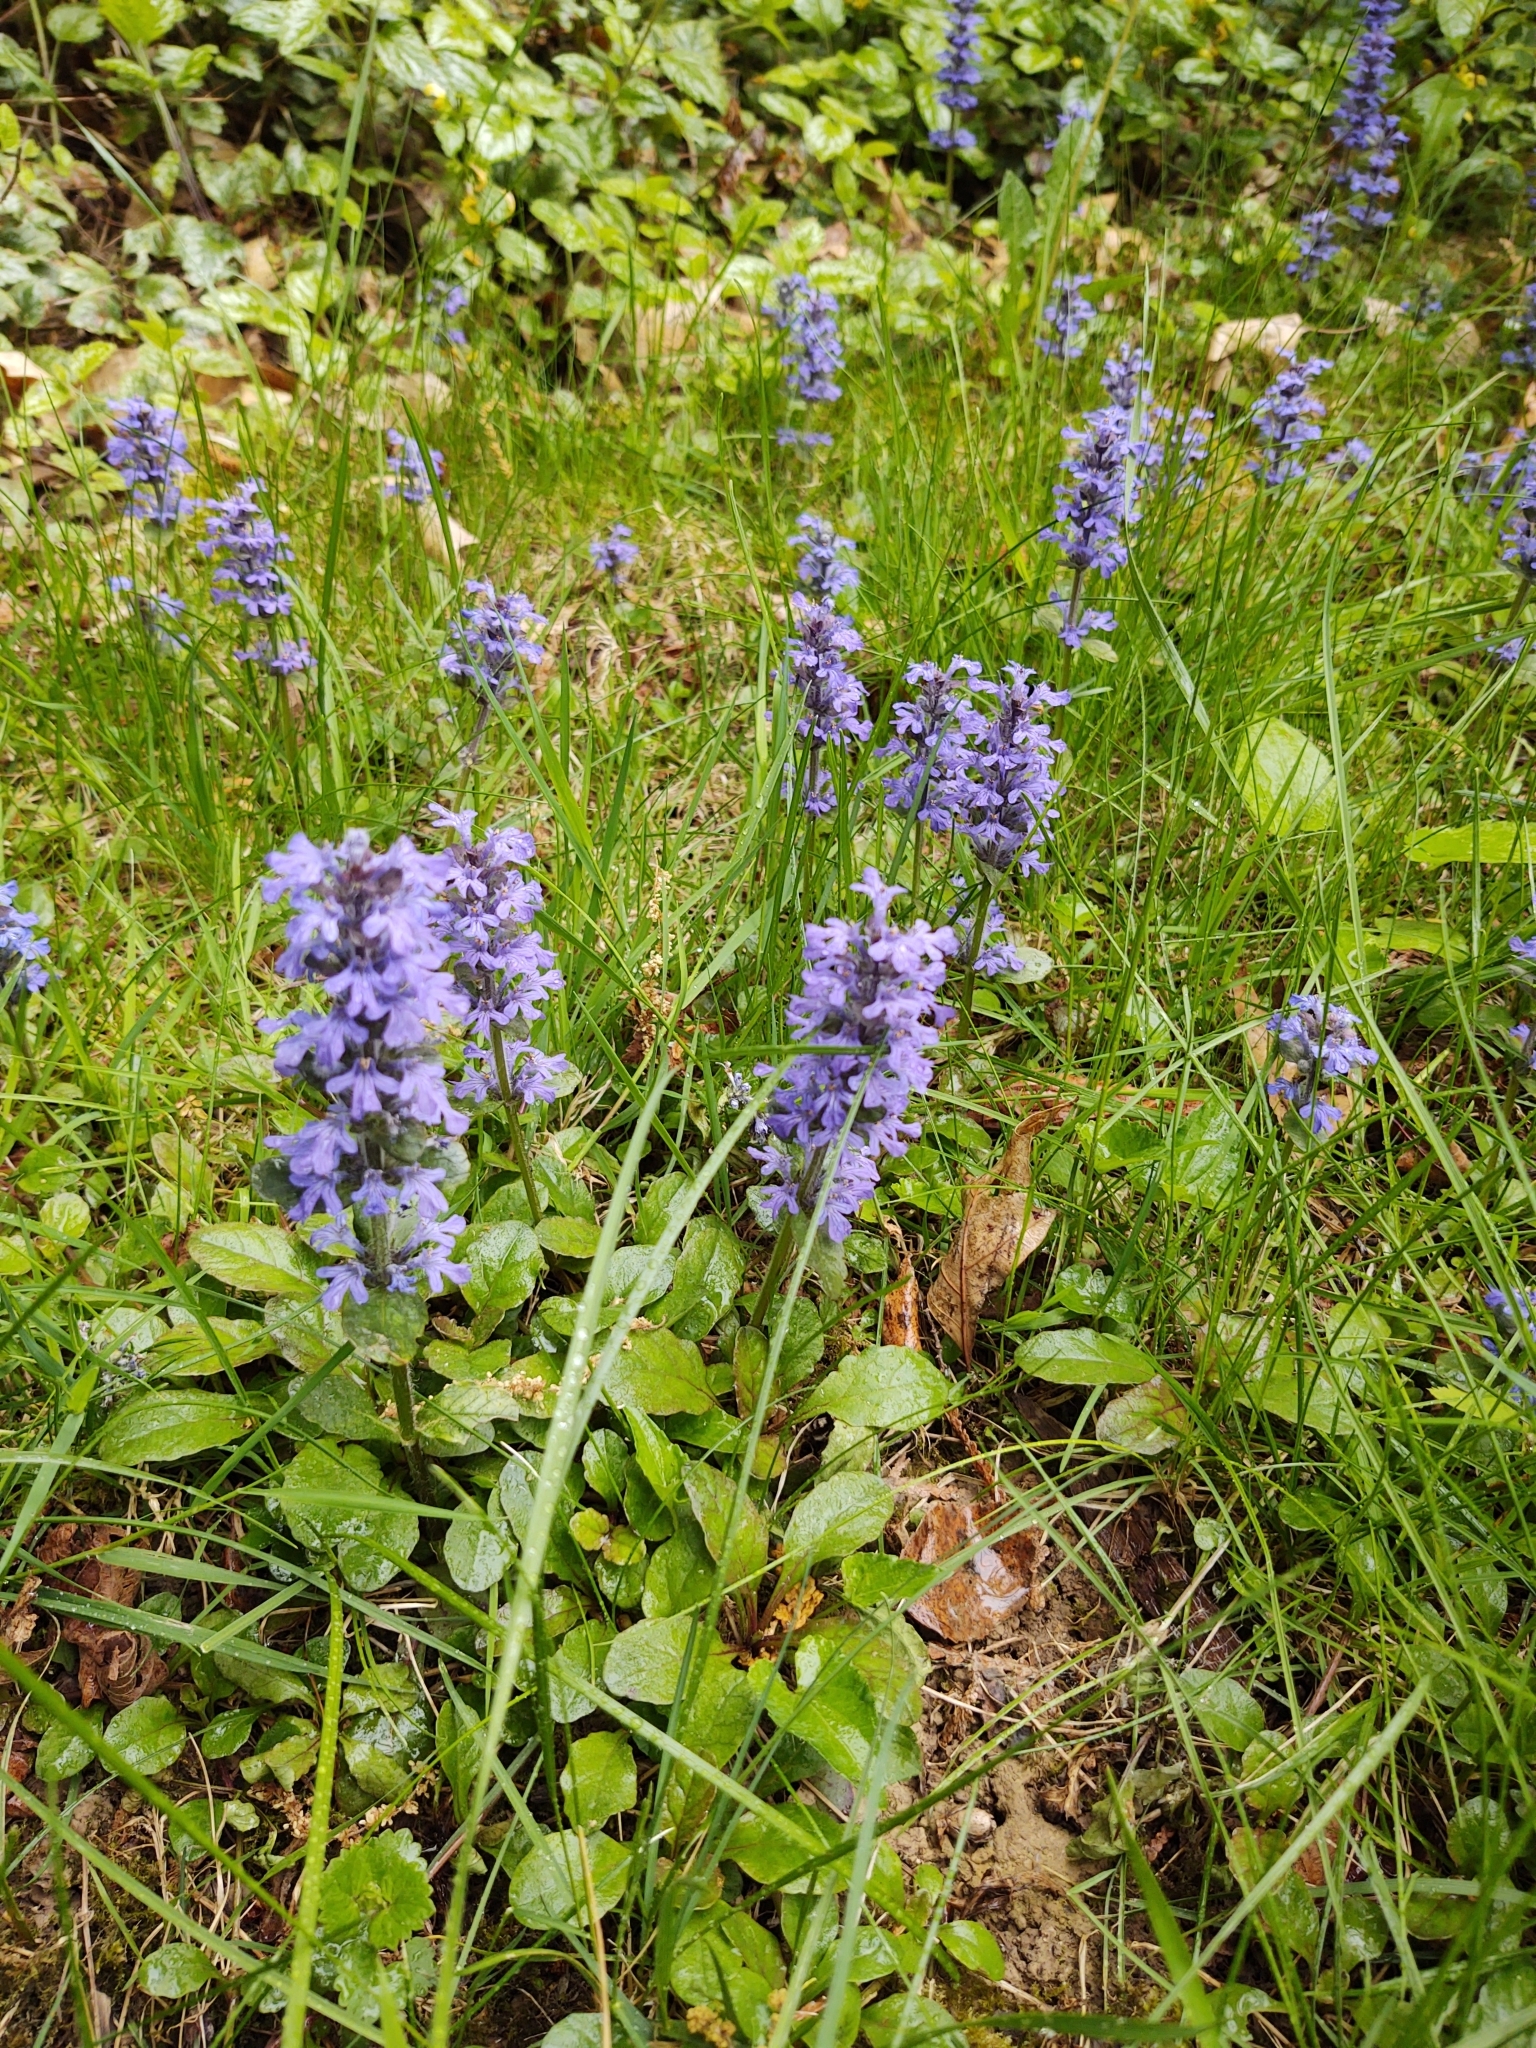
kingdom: Plantae
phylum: Tracheophyta
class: Magnoliopsida
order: Lamiales
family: Lamiaceae
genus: Ajuga
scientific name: Ajuga reptans
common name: Bugle
